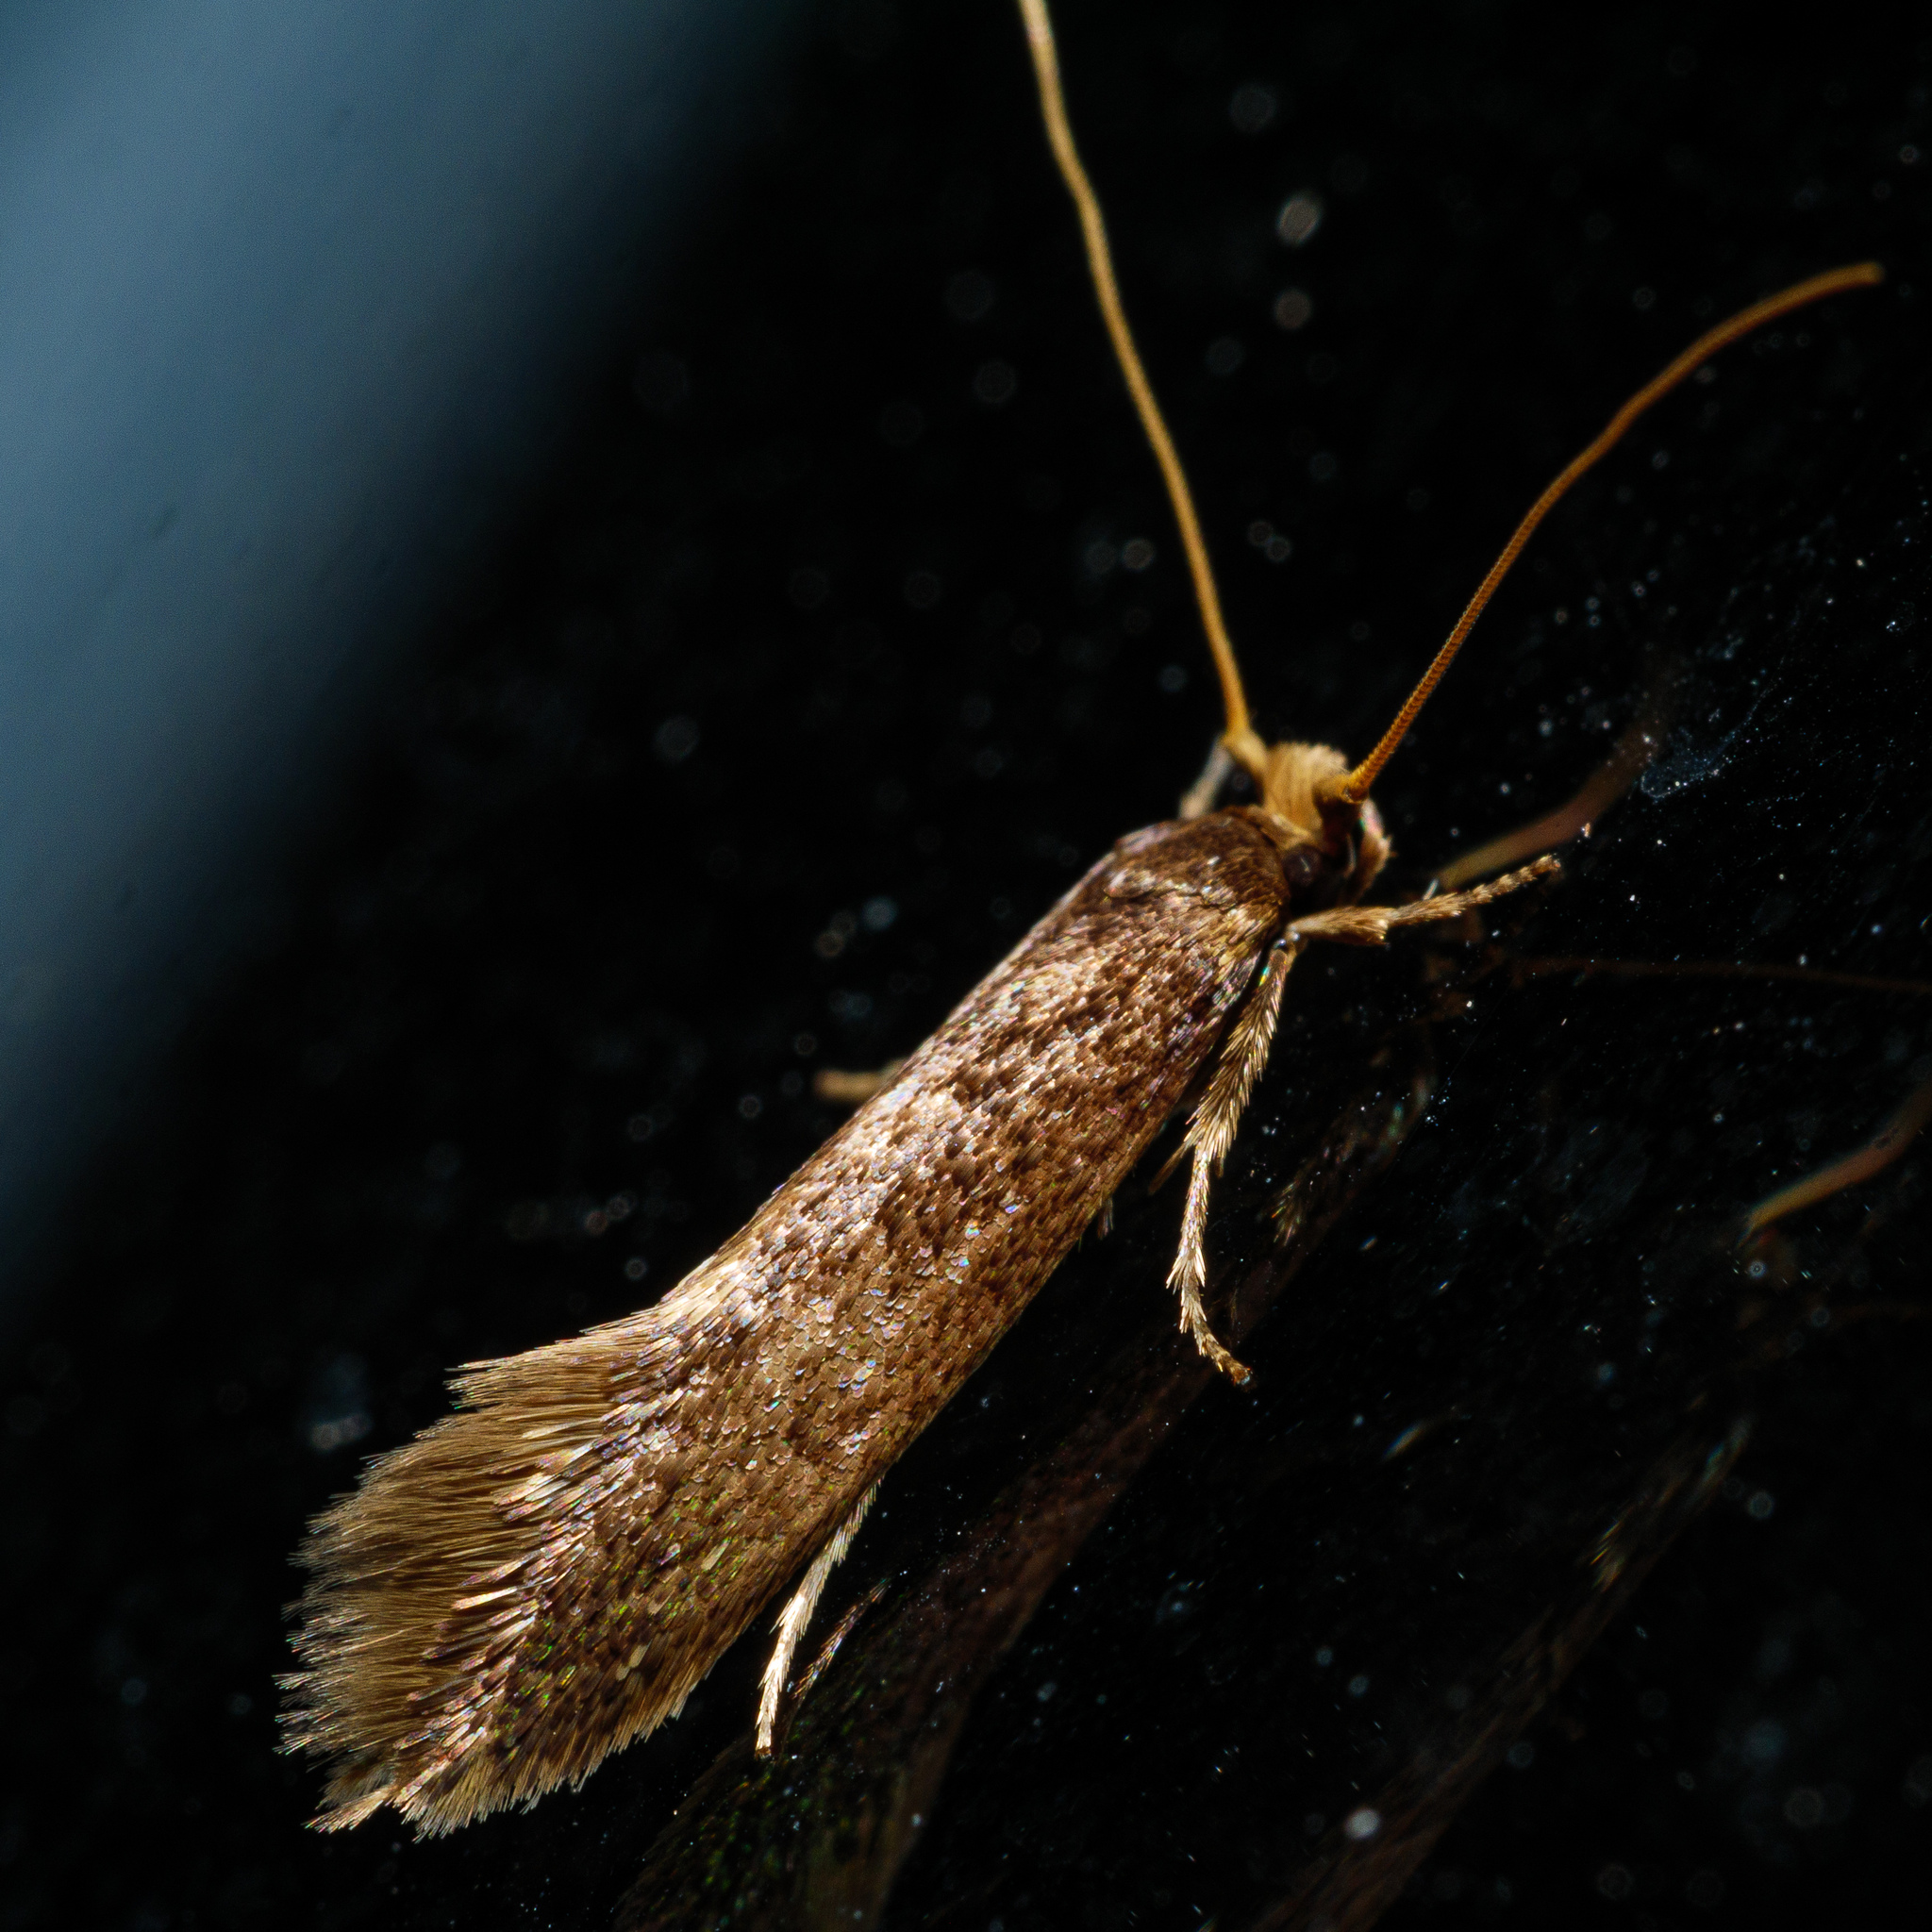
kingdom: Animalia
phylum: Arthropoda
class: Insecta
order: Lepidoptera
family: Tineidae
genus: Opogona
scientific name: Opogona omoscopa
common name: Moth
